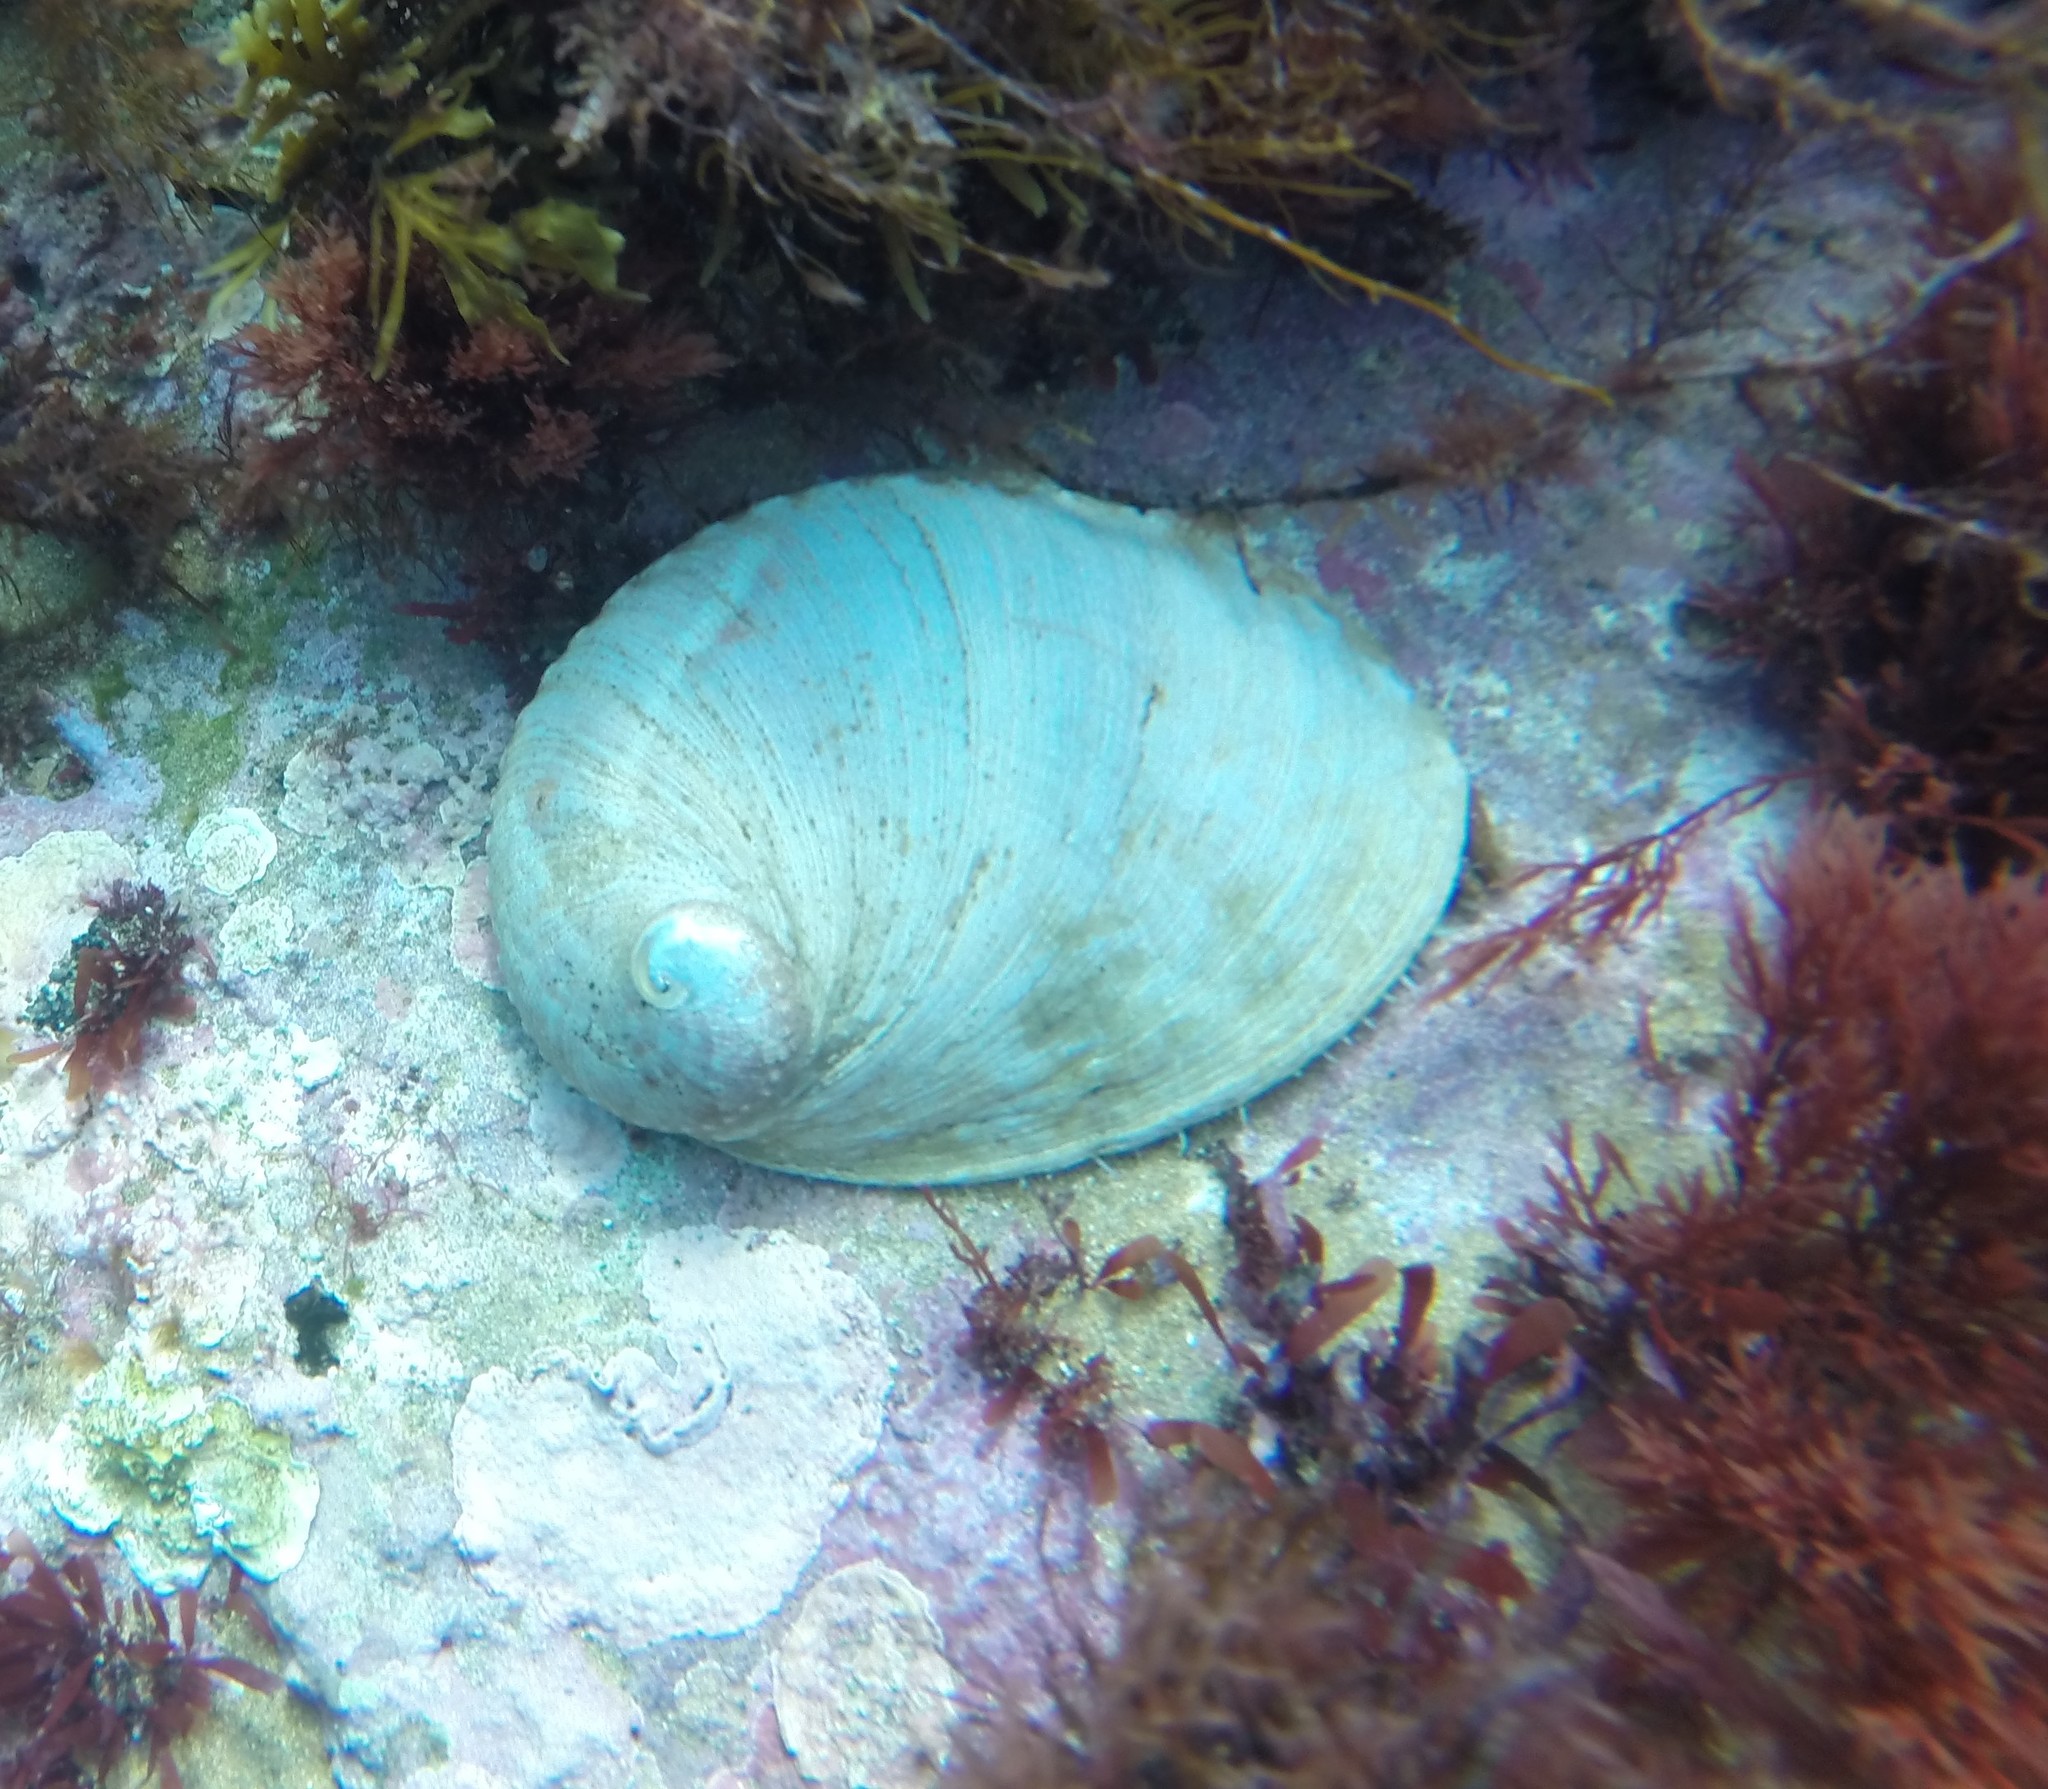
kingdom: Animalia
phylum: Mollusca
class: Gastropoda
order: Lepetellida
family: Haliotidae
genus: Haliotis
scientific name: Haliotis laevigata
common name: Greenlip abalone
